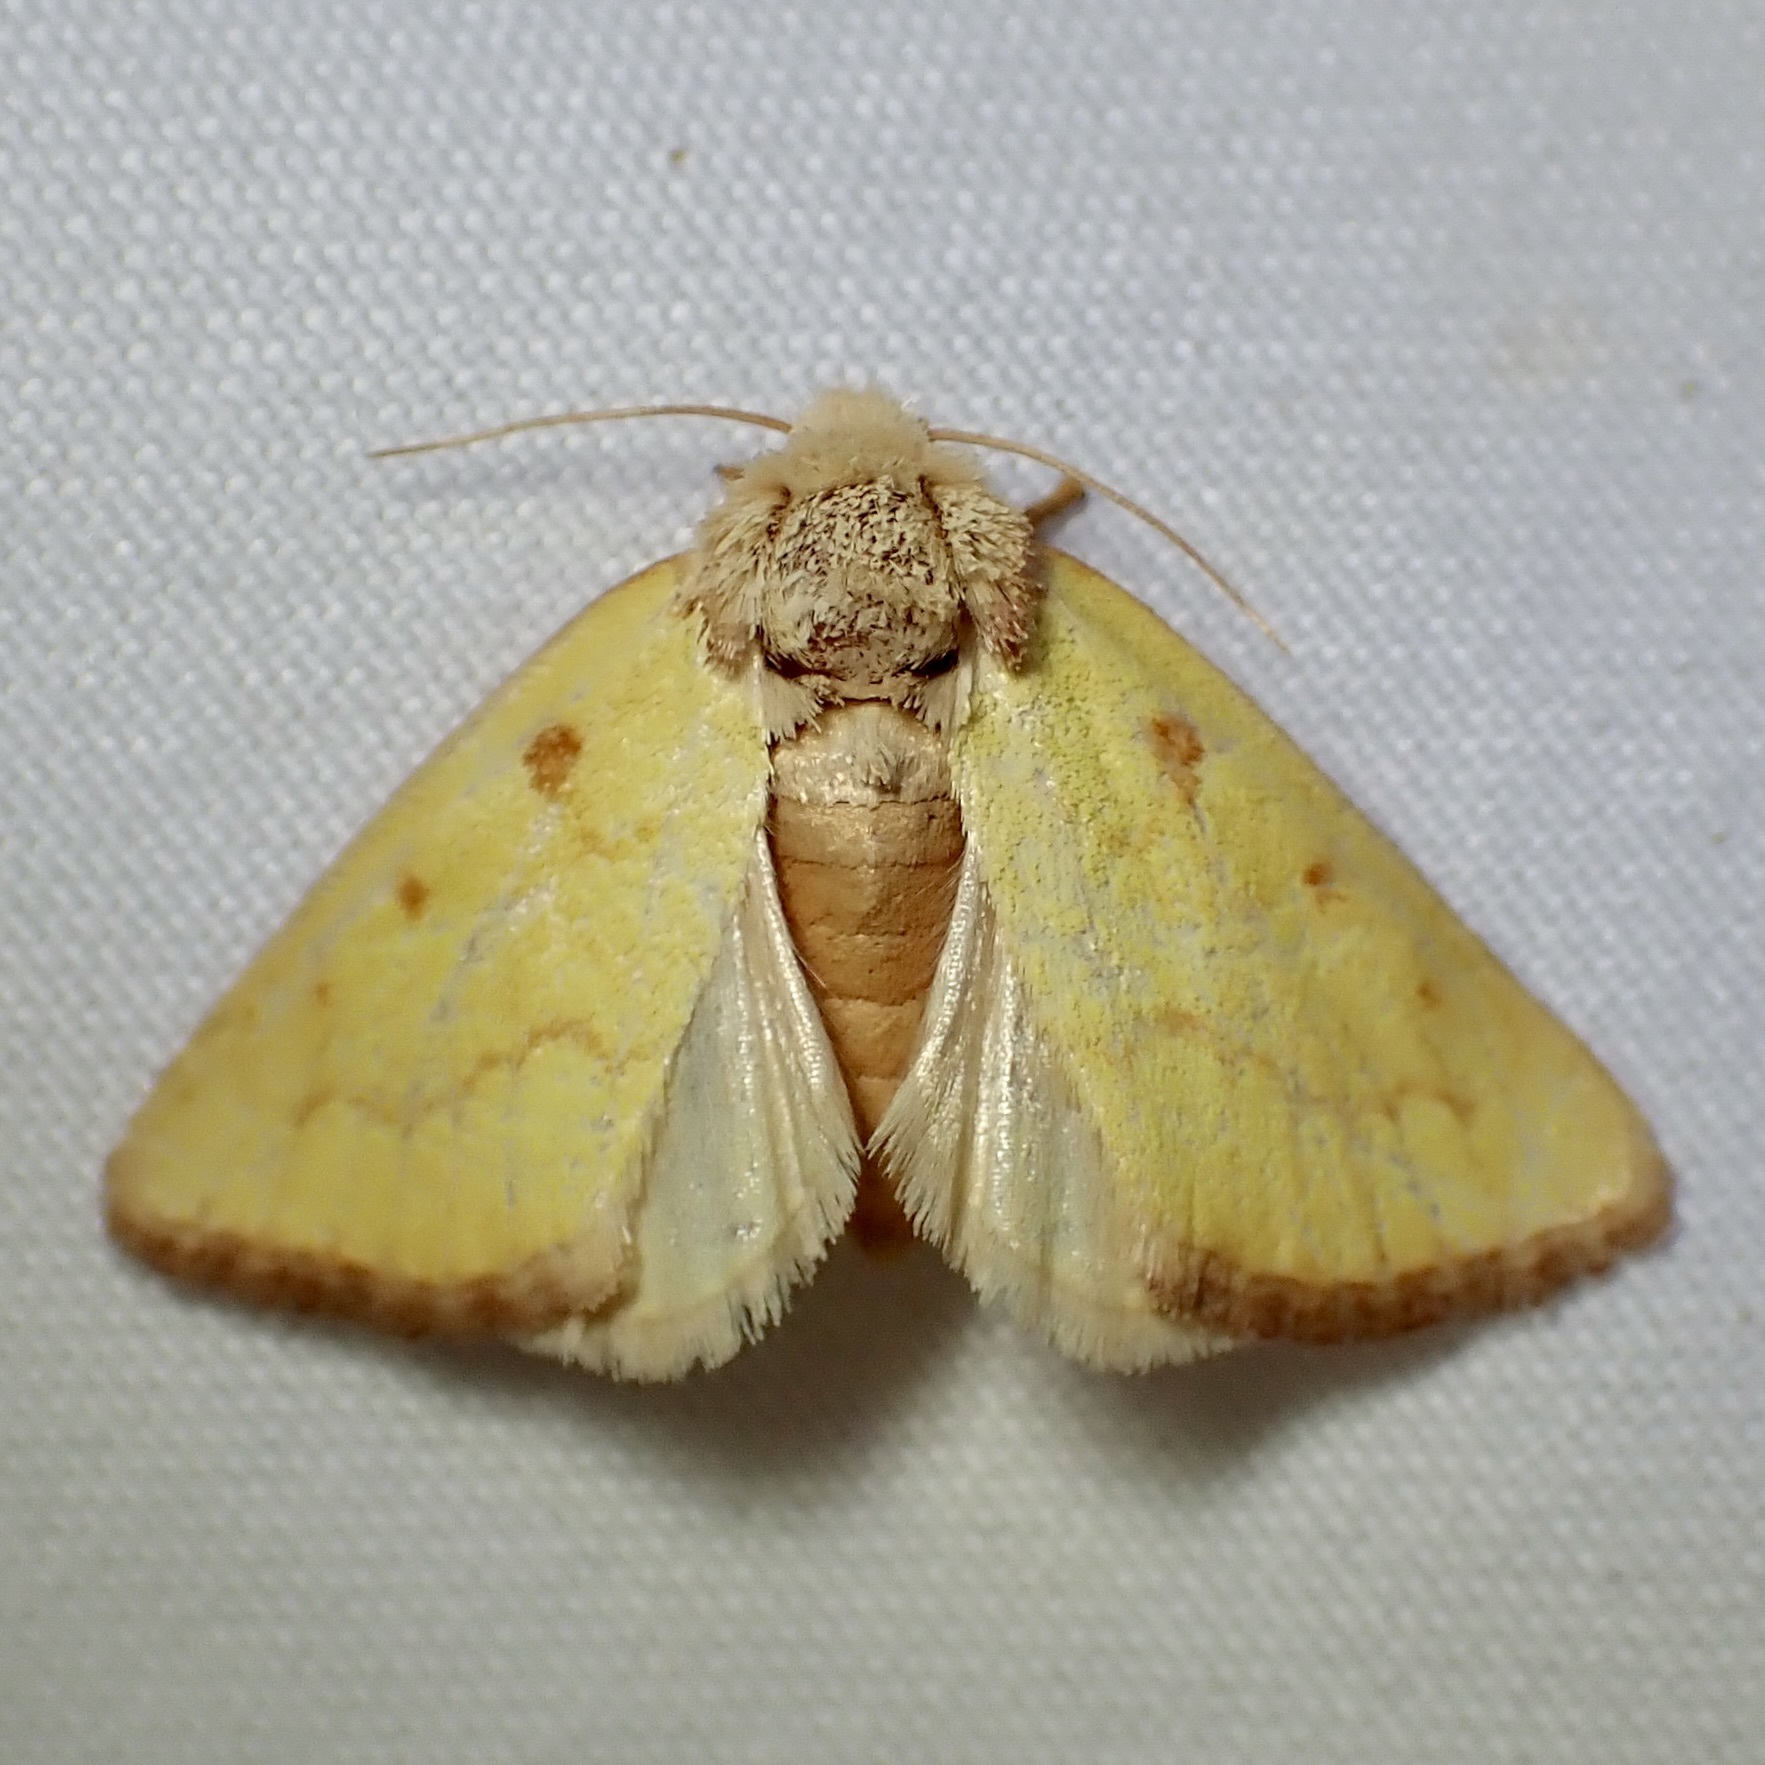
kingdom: Animalia
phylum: Arthropoda
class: Insecta
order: Lepidoptera
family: Noctuidae
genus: Nocloa
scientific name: Nocloa aliaga
